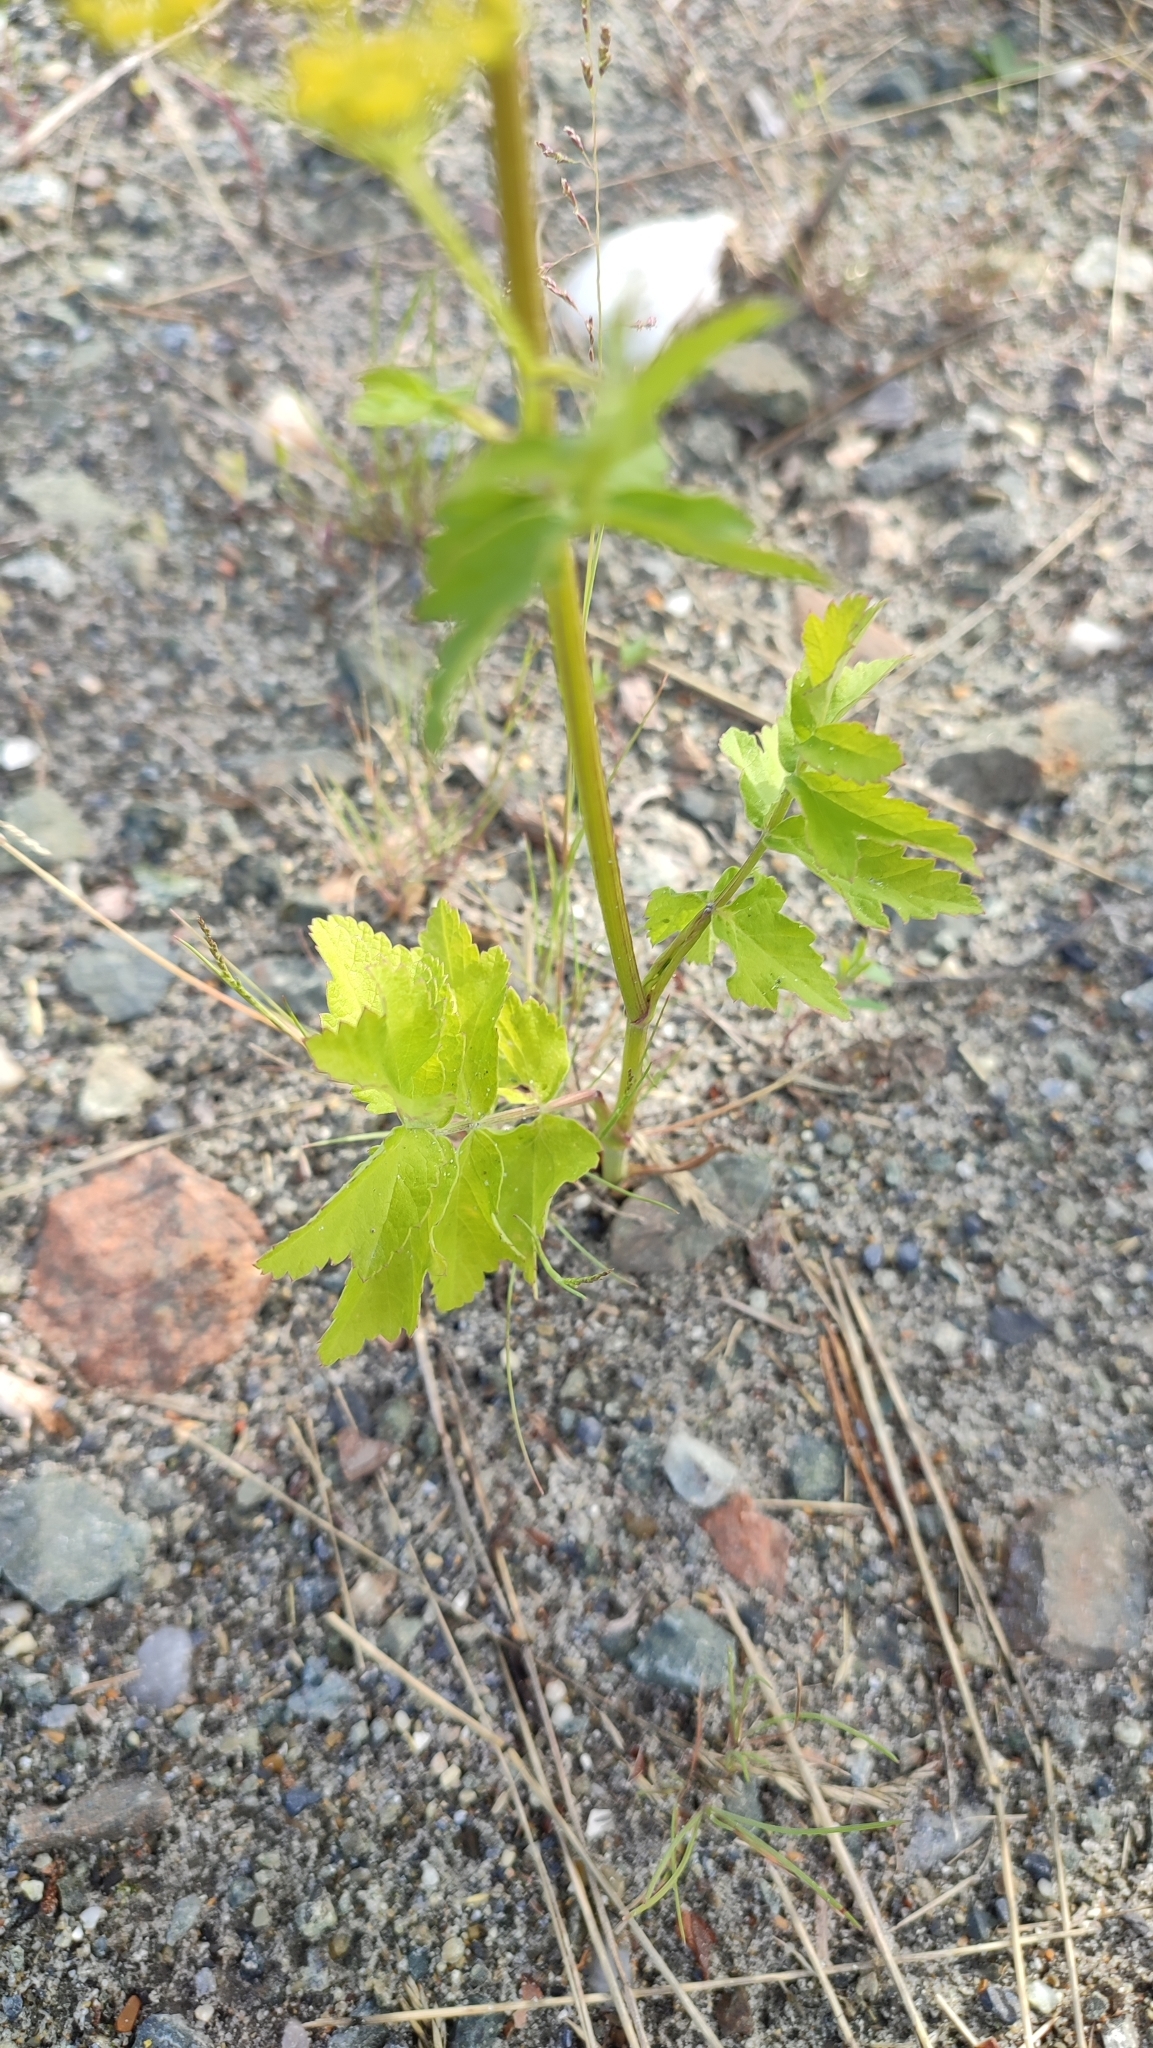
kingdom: Plantae
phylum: Tracheophyta
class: Magnoliopsida
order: Apiales
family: Apiaceae
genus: Pastinaca
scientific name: Pastinaca sativa
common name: Wild parsnip
